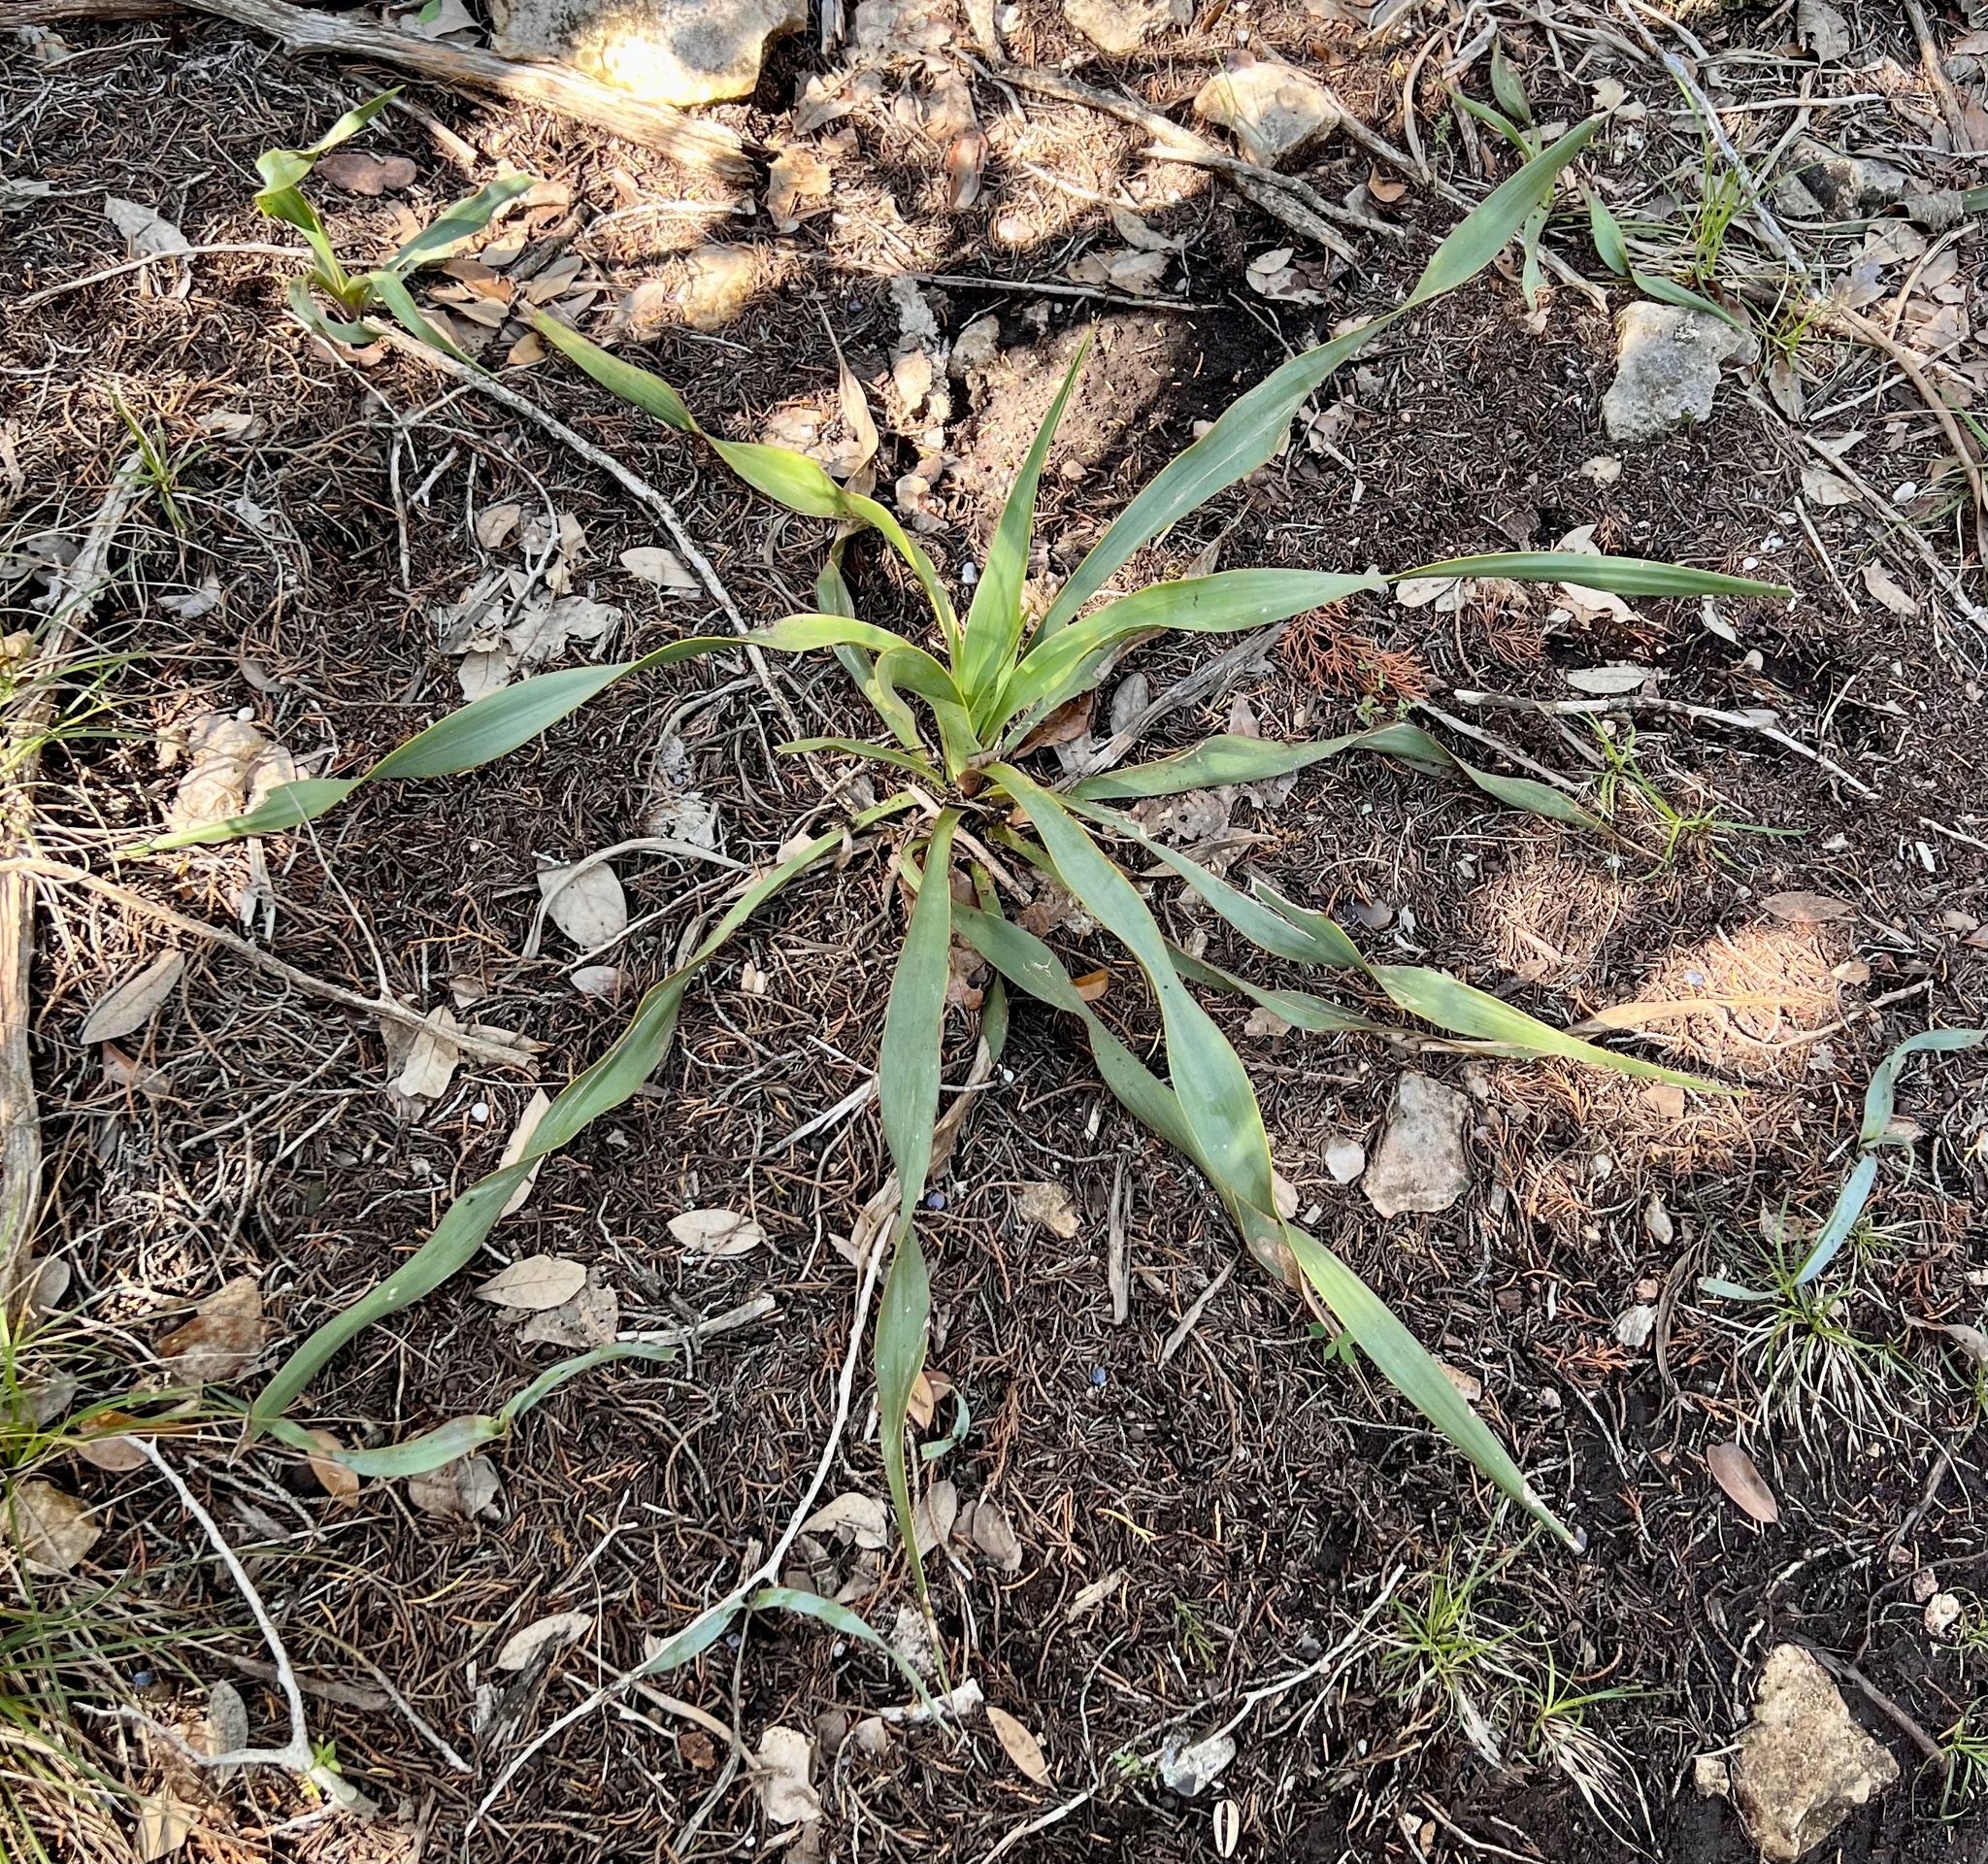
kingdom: Plantae
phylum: Tracheophyta
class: Liliopsida
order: Asparagales
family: Asparagaceae
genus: Yucca
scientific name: Yucca rupicola
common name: Twisted-leaf spanish-dagger
